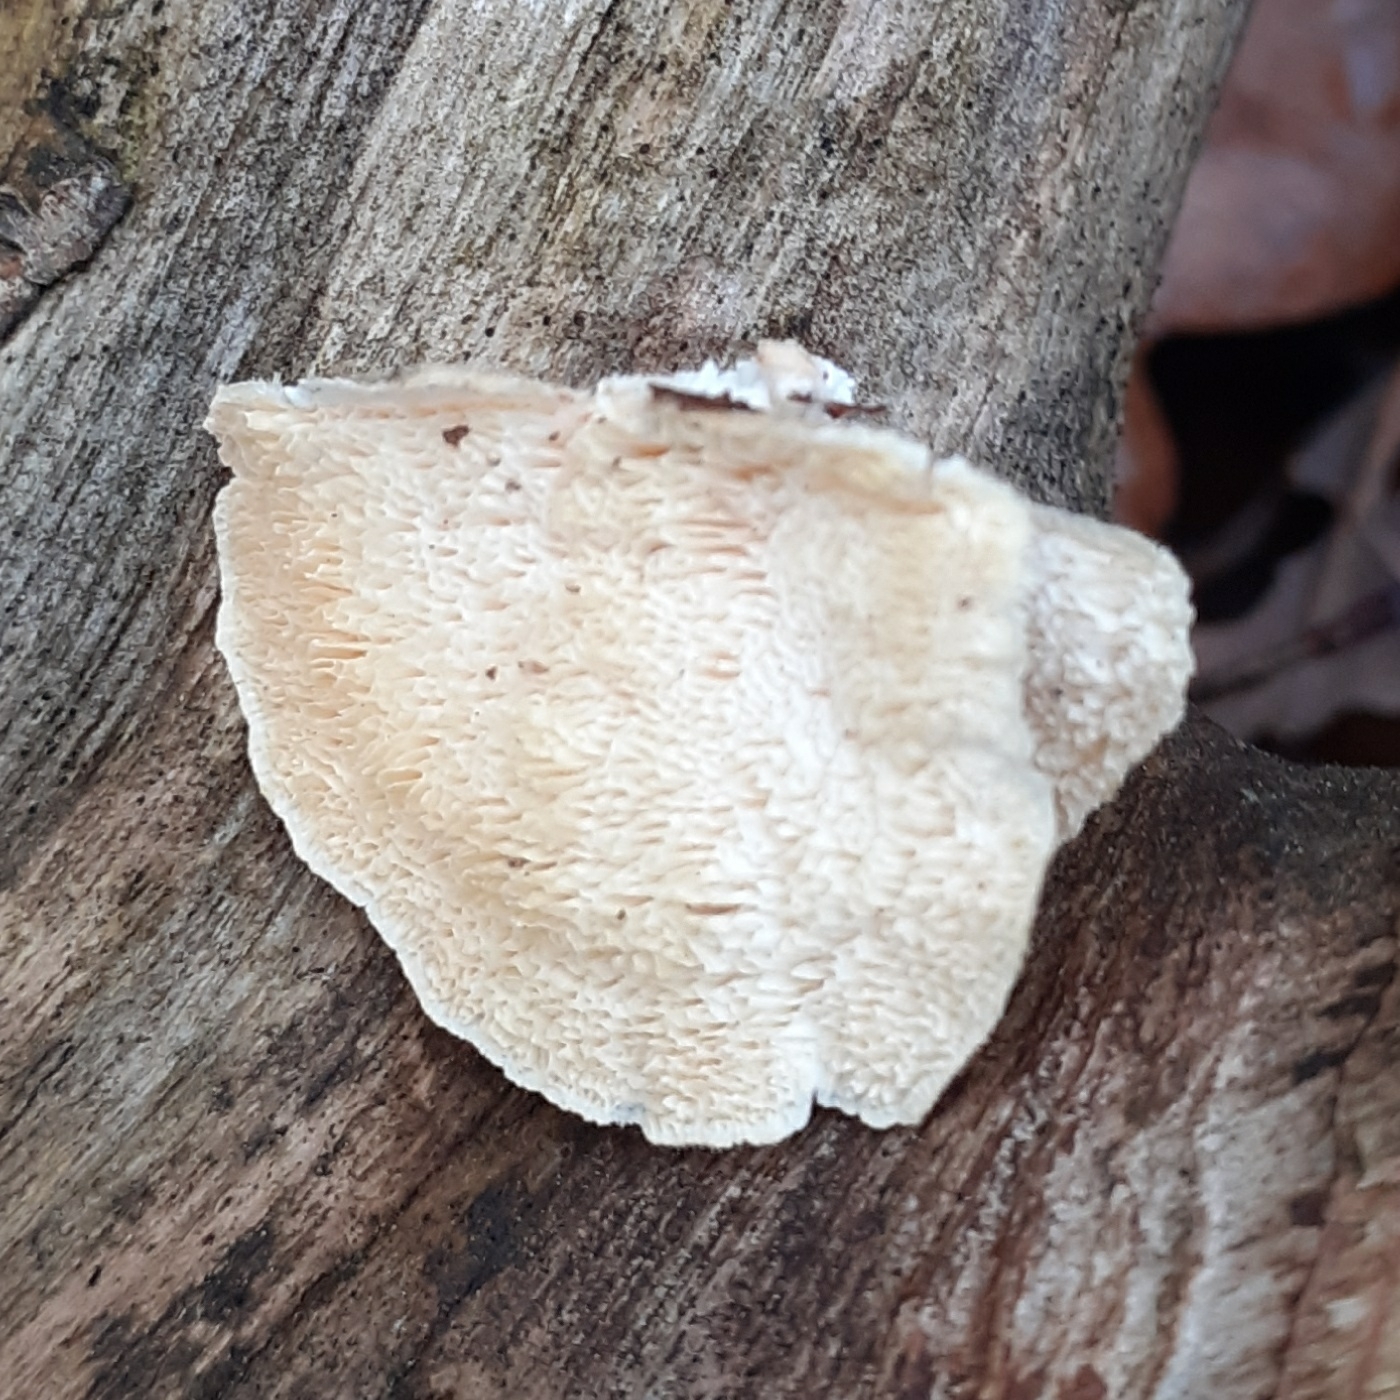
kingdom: Fungi
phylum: Basidiomycota
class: Agaricomycetes
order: Polyporales
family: Polyporaceae
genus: Trametes
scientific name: Trametes hirsuta
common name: Hairy bracket
